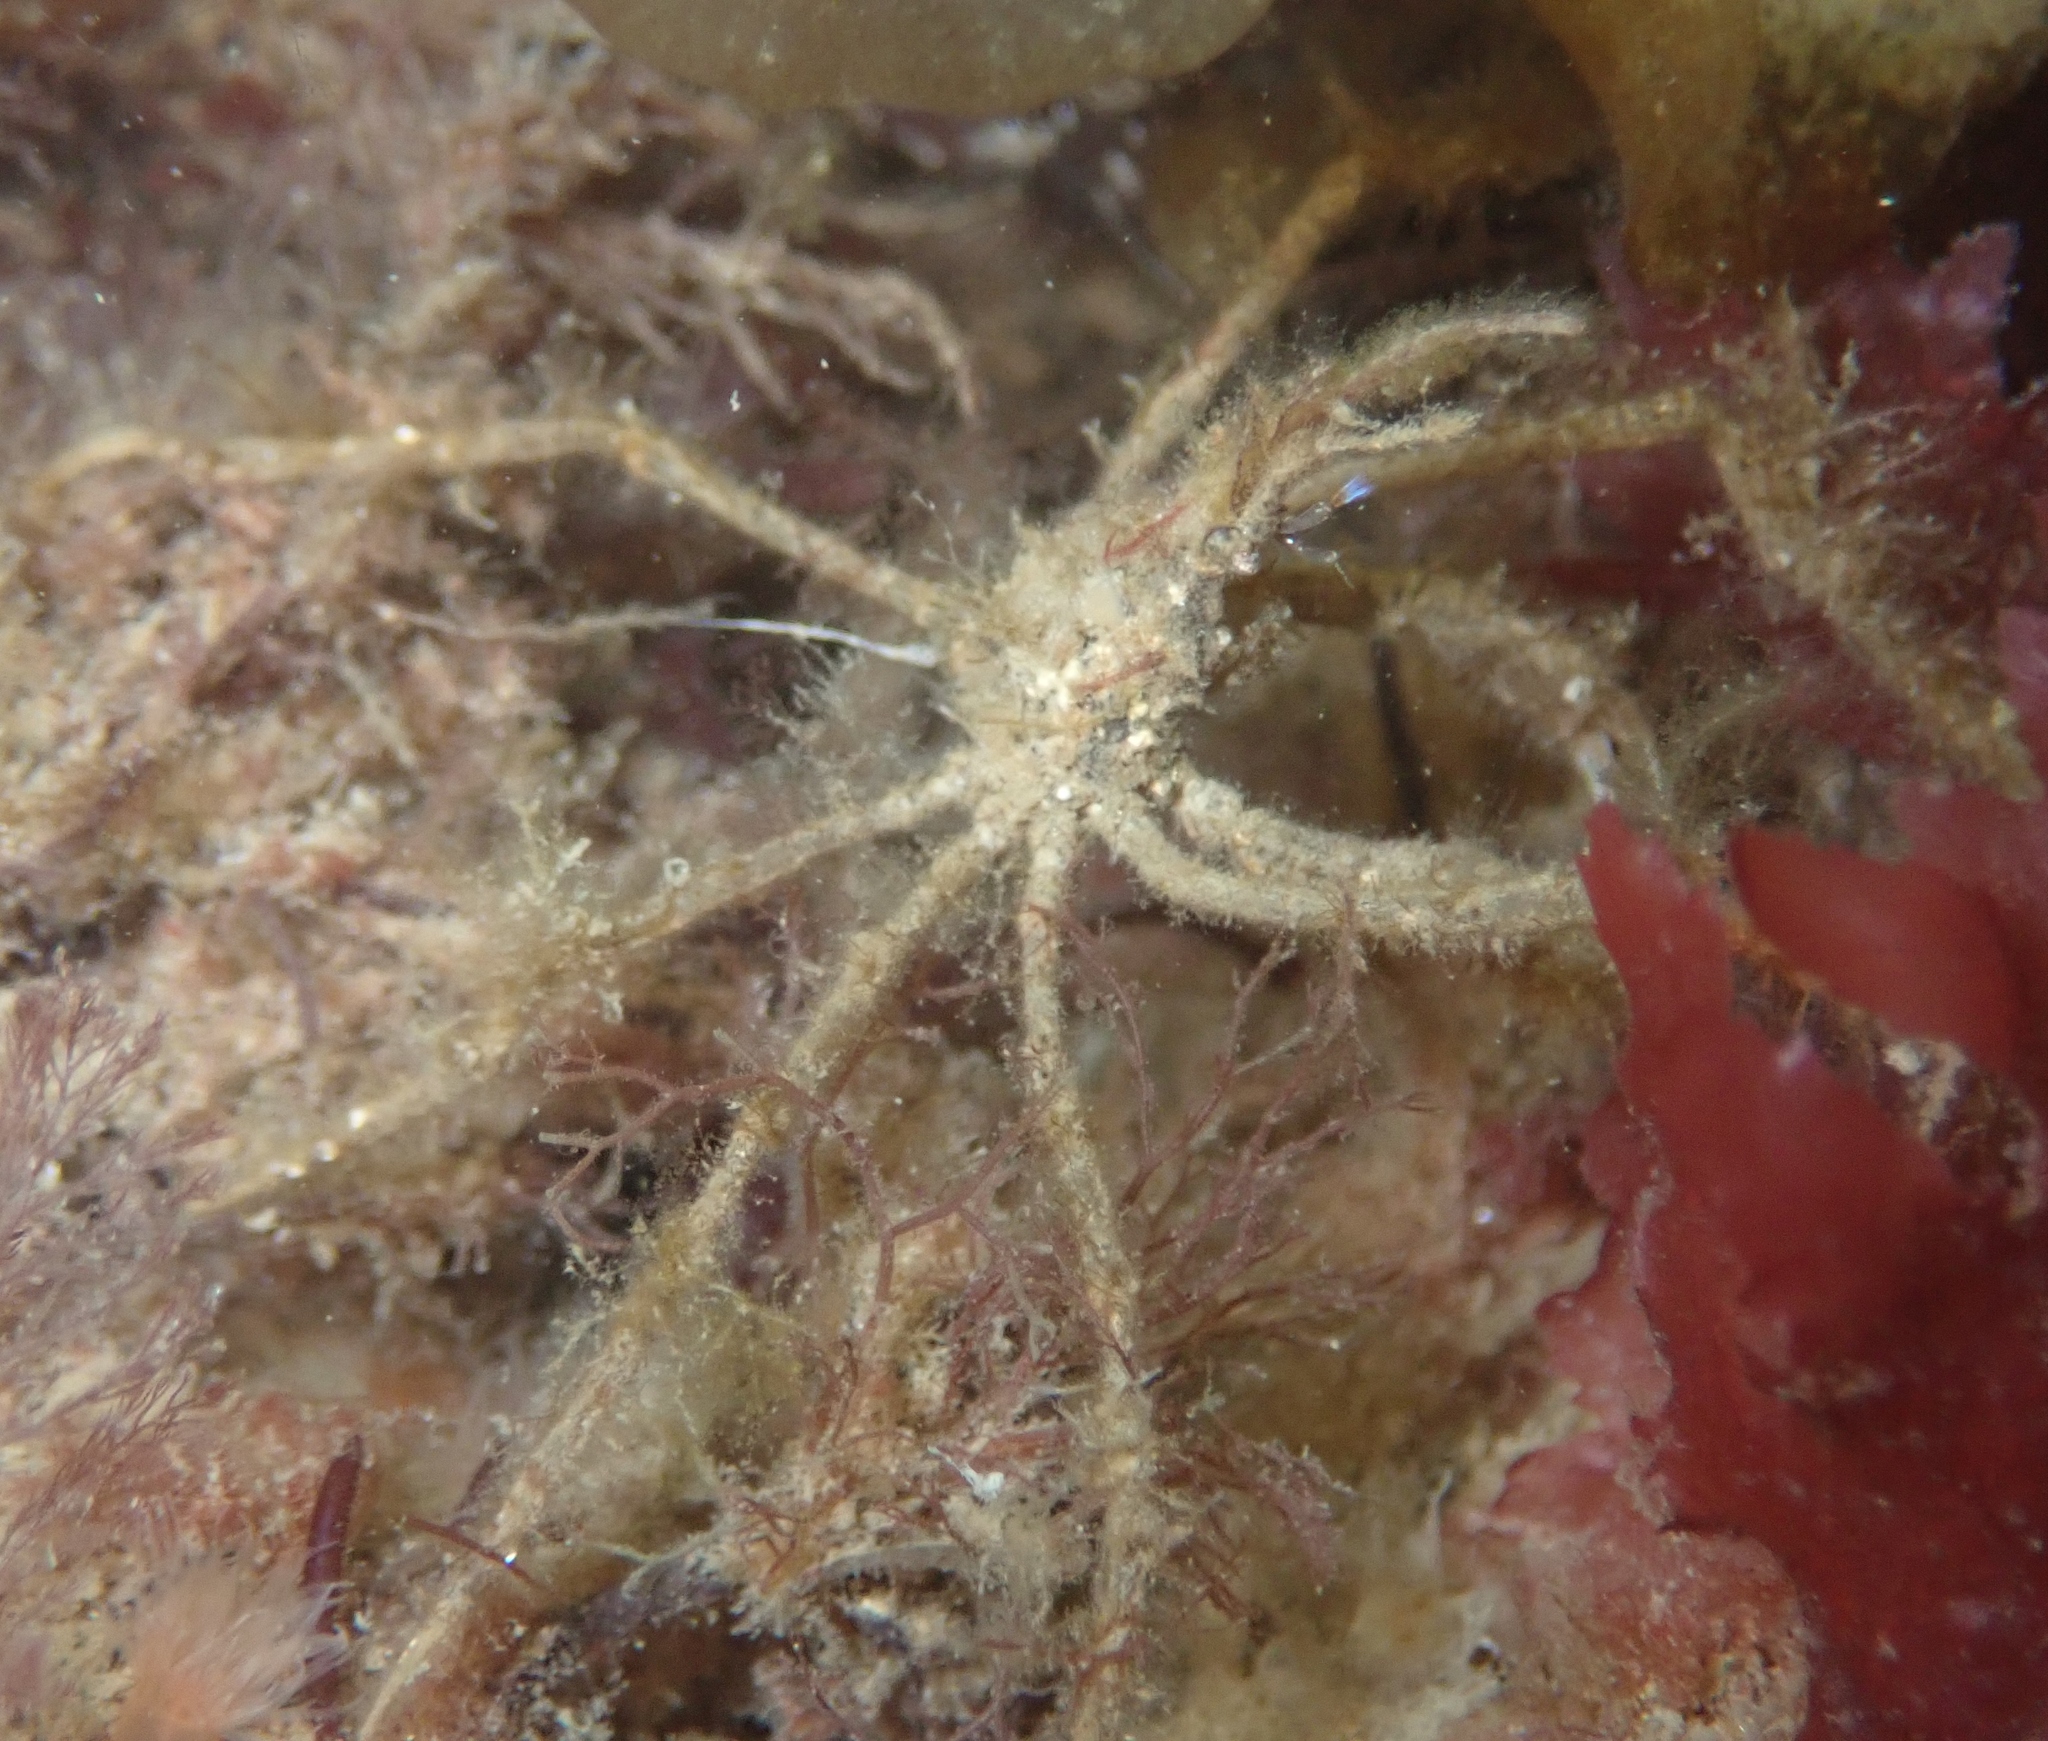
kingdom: Animalia
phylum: Arthropoda
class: Malacostraca
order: Decapoda
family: Inachidae
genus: Macropodia
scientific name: Macropodia rostrata
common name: Long-legged spider crab
